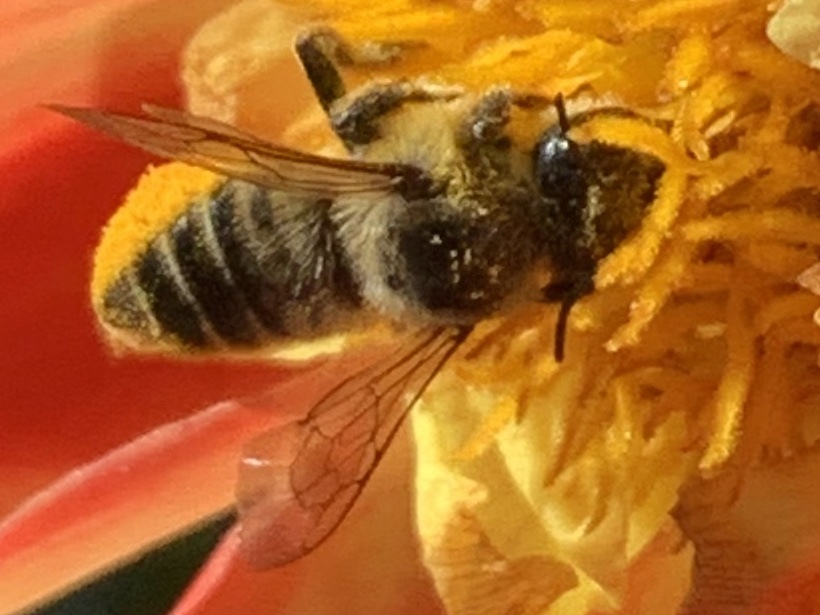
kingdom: Animalia
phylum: Arthropoda
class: Insecta
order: Hymenoptera
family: Megachilidae
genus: Megachile
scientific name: Megachile perihirta
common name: Western leafcutter
